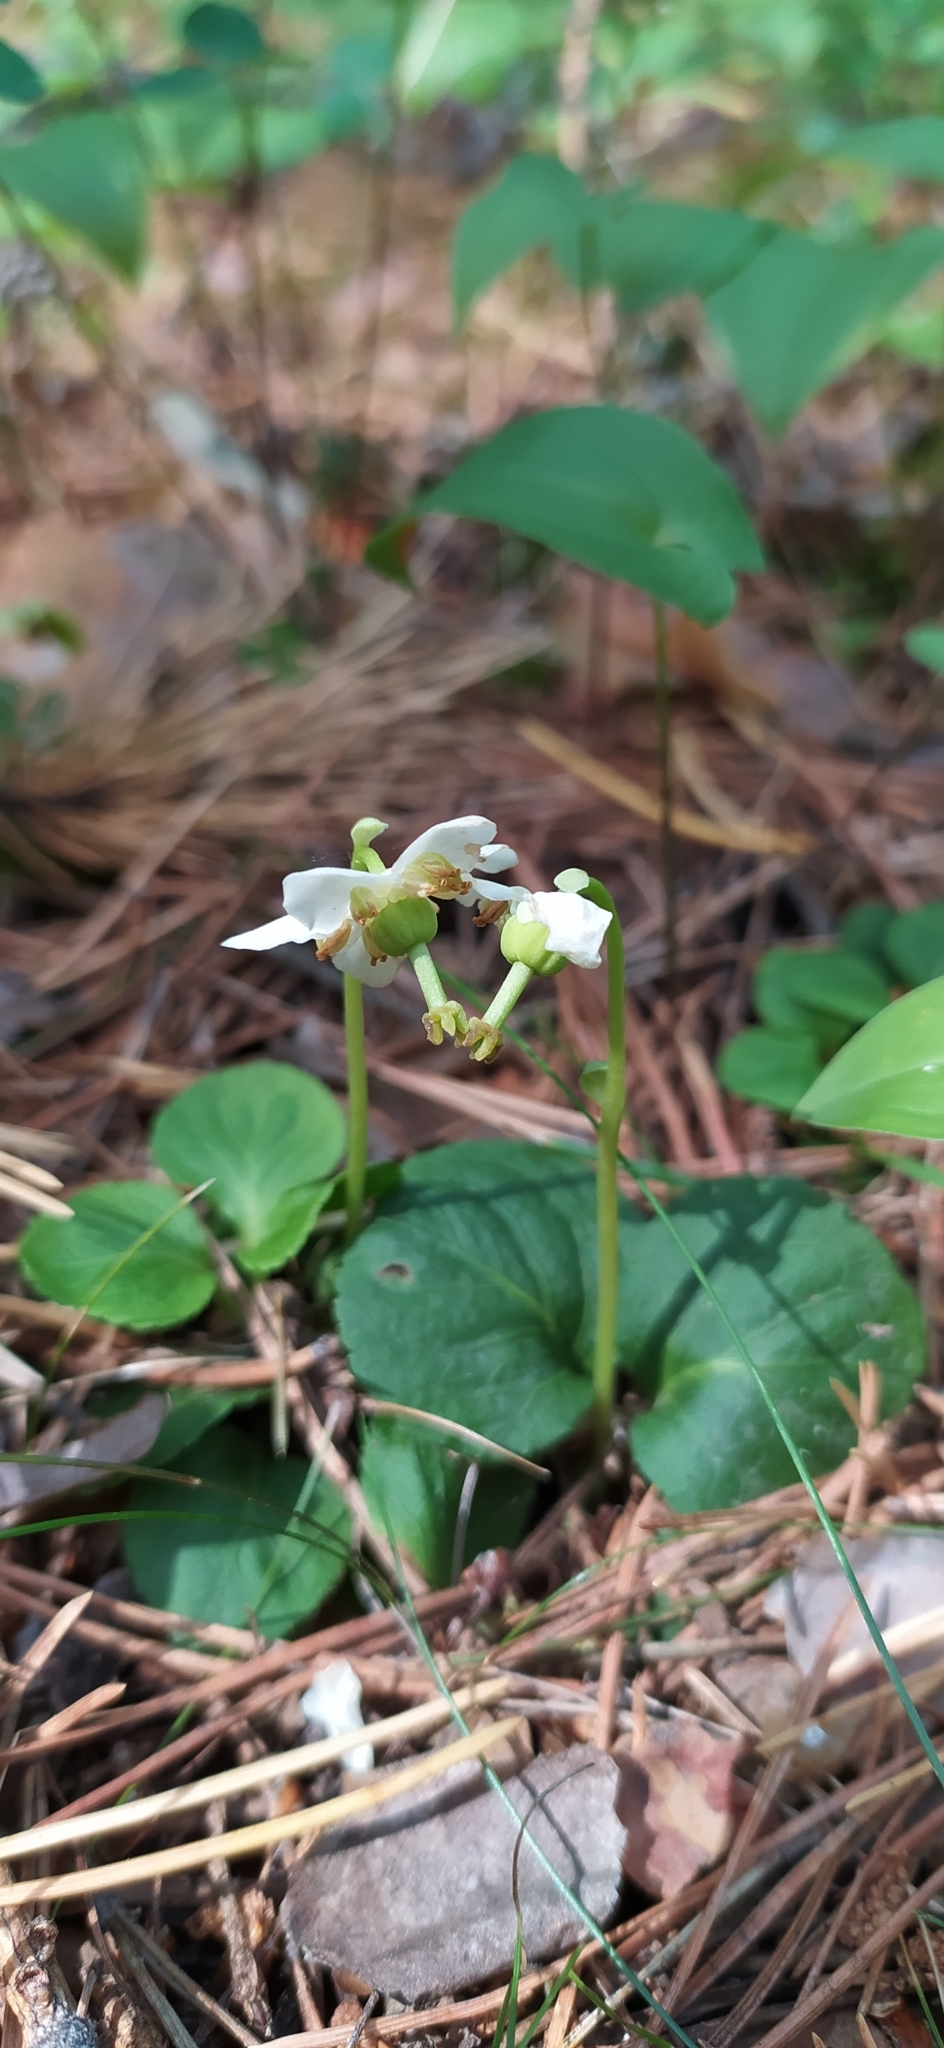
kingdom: Plantae
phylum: Tracheophyta
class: Magnoliopsida
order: Ericales
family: Ericaceae
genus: Moneses
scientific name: Moneses uniflora
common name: One-flowered wintergreen
